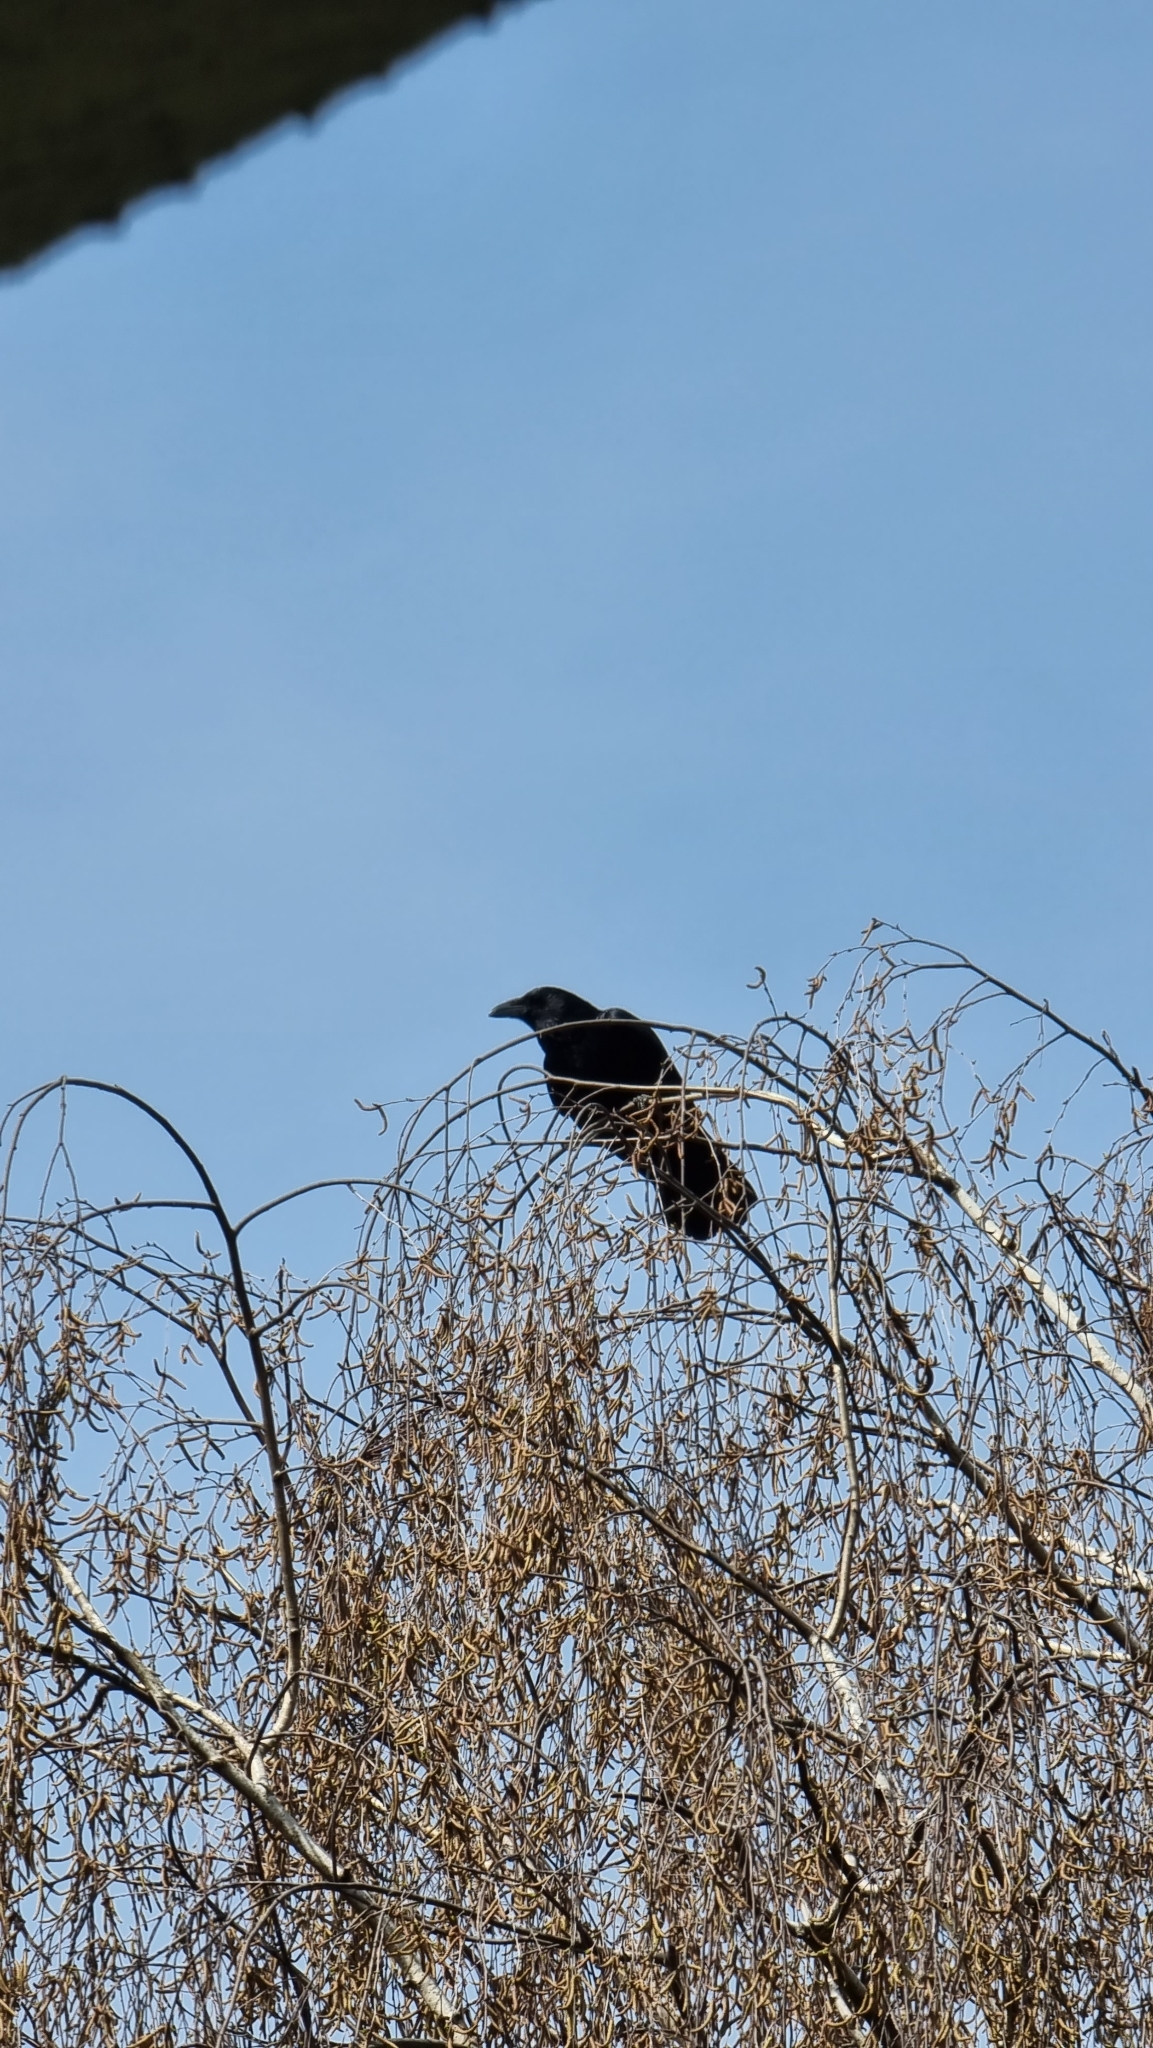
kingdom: Animalia
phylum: Chordata
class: Aves
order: Passeriformes
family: Corvidae
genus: Corvus
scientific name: Corvus corone
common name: Carrion crow
